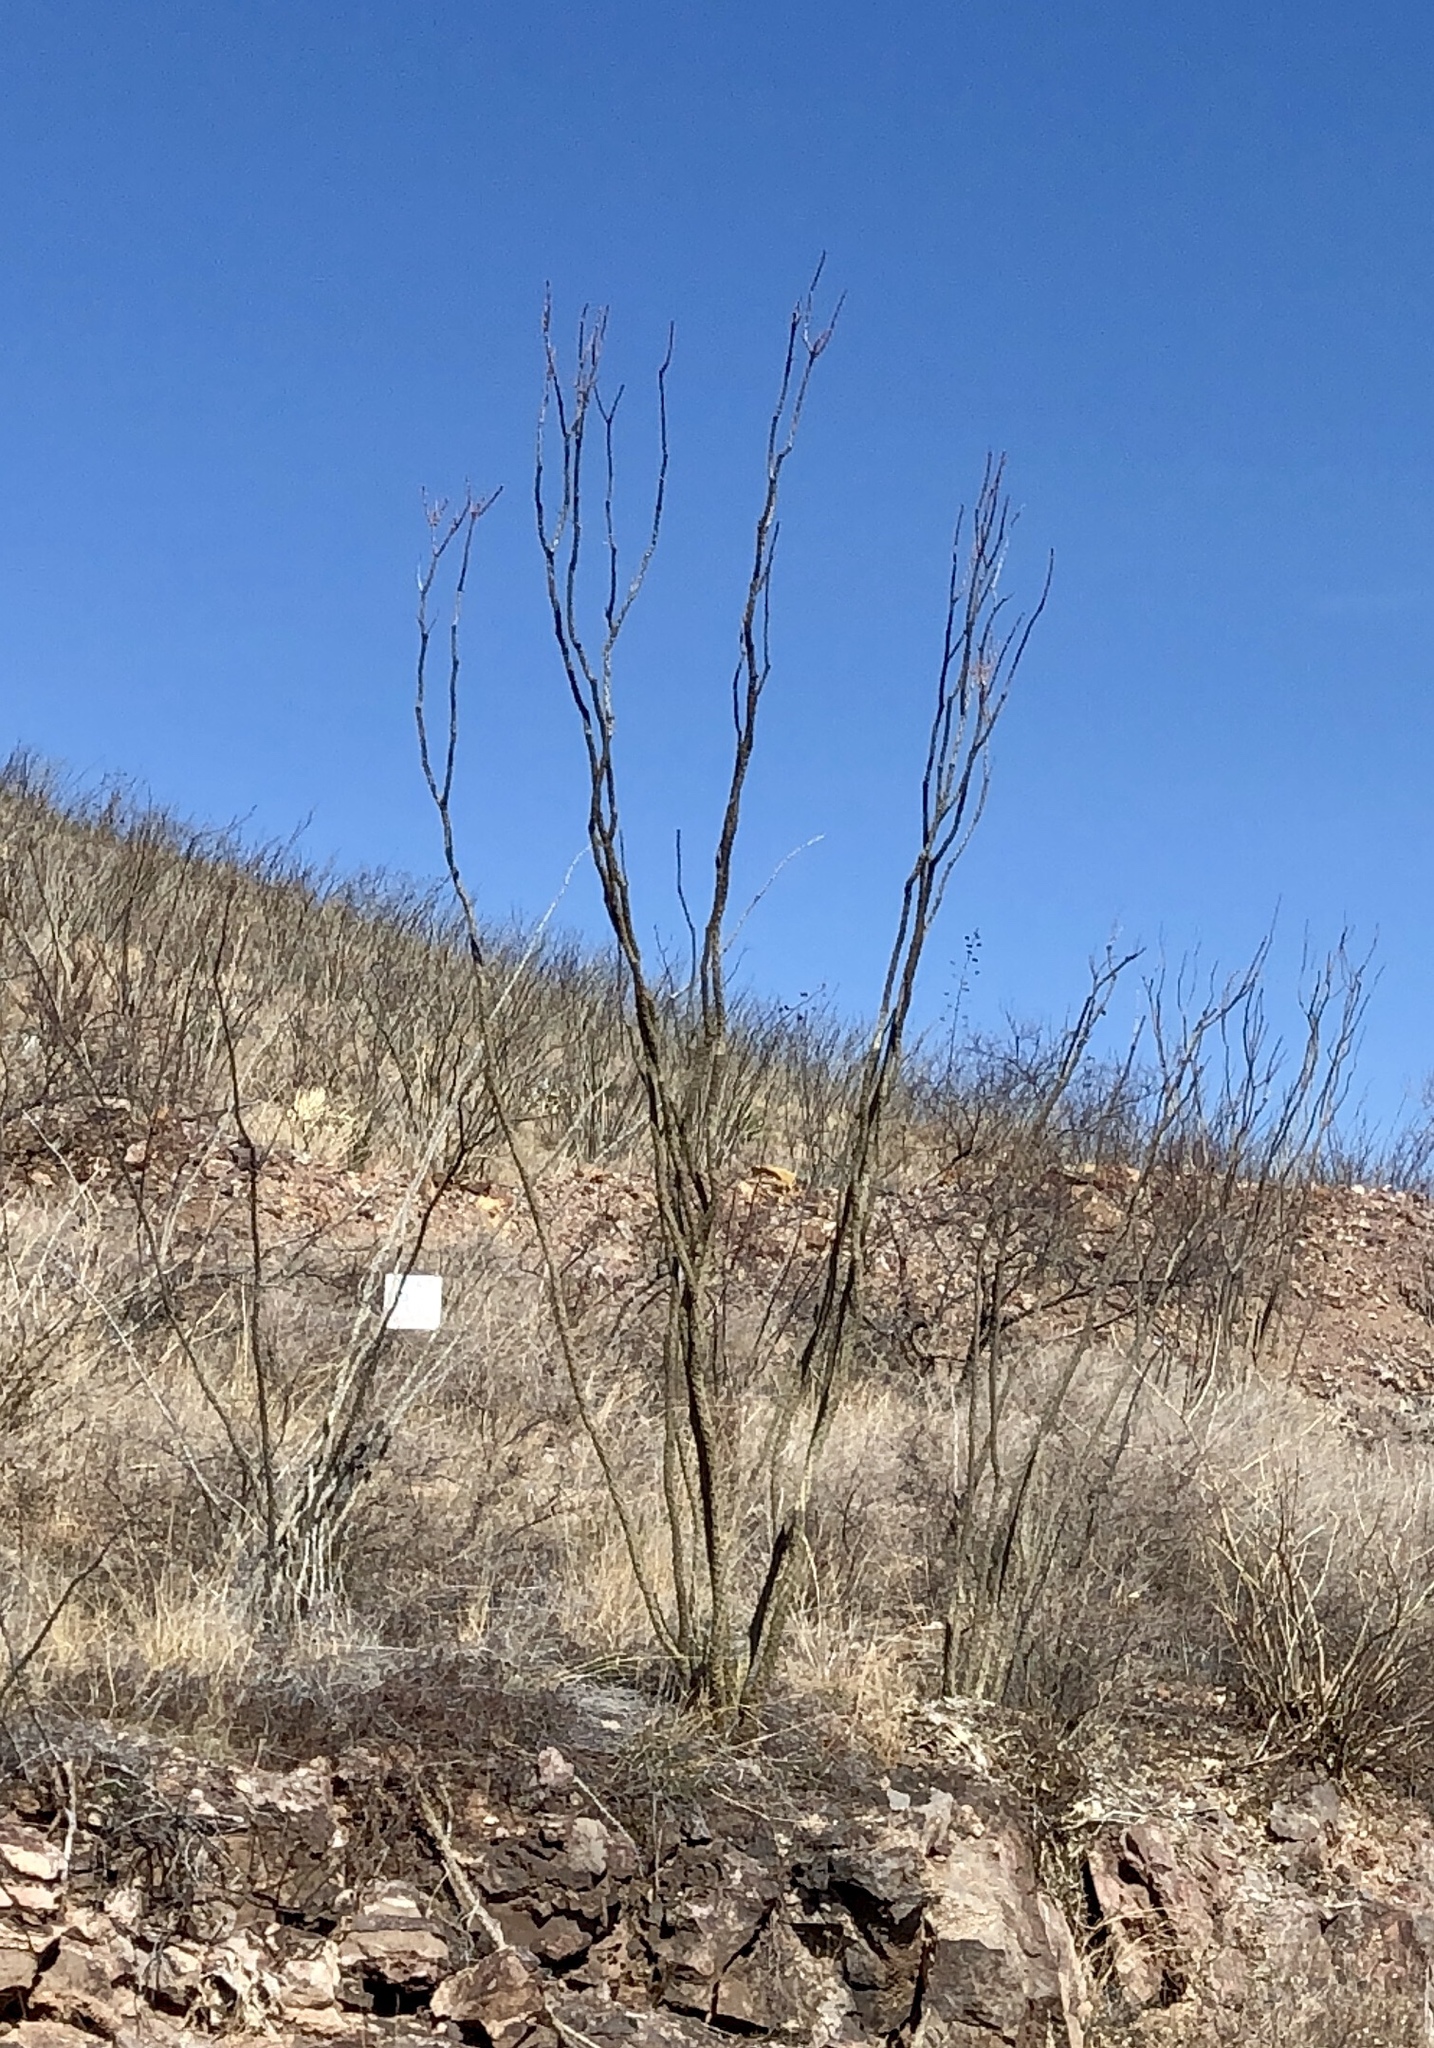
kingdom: Plantae
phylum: Tracheophyta
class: Magnoliopsida
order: Ericales
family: Fouquieriaceae
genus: Fouquieria
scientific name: Fouquieria splendens
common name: Vine-cactus
